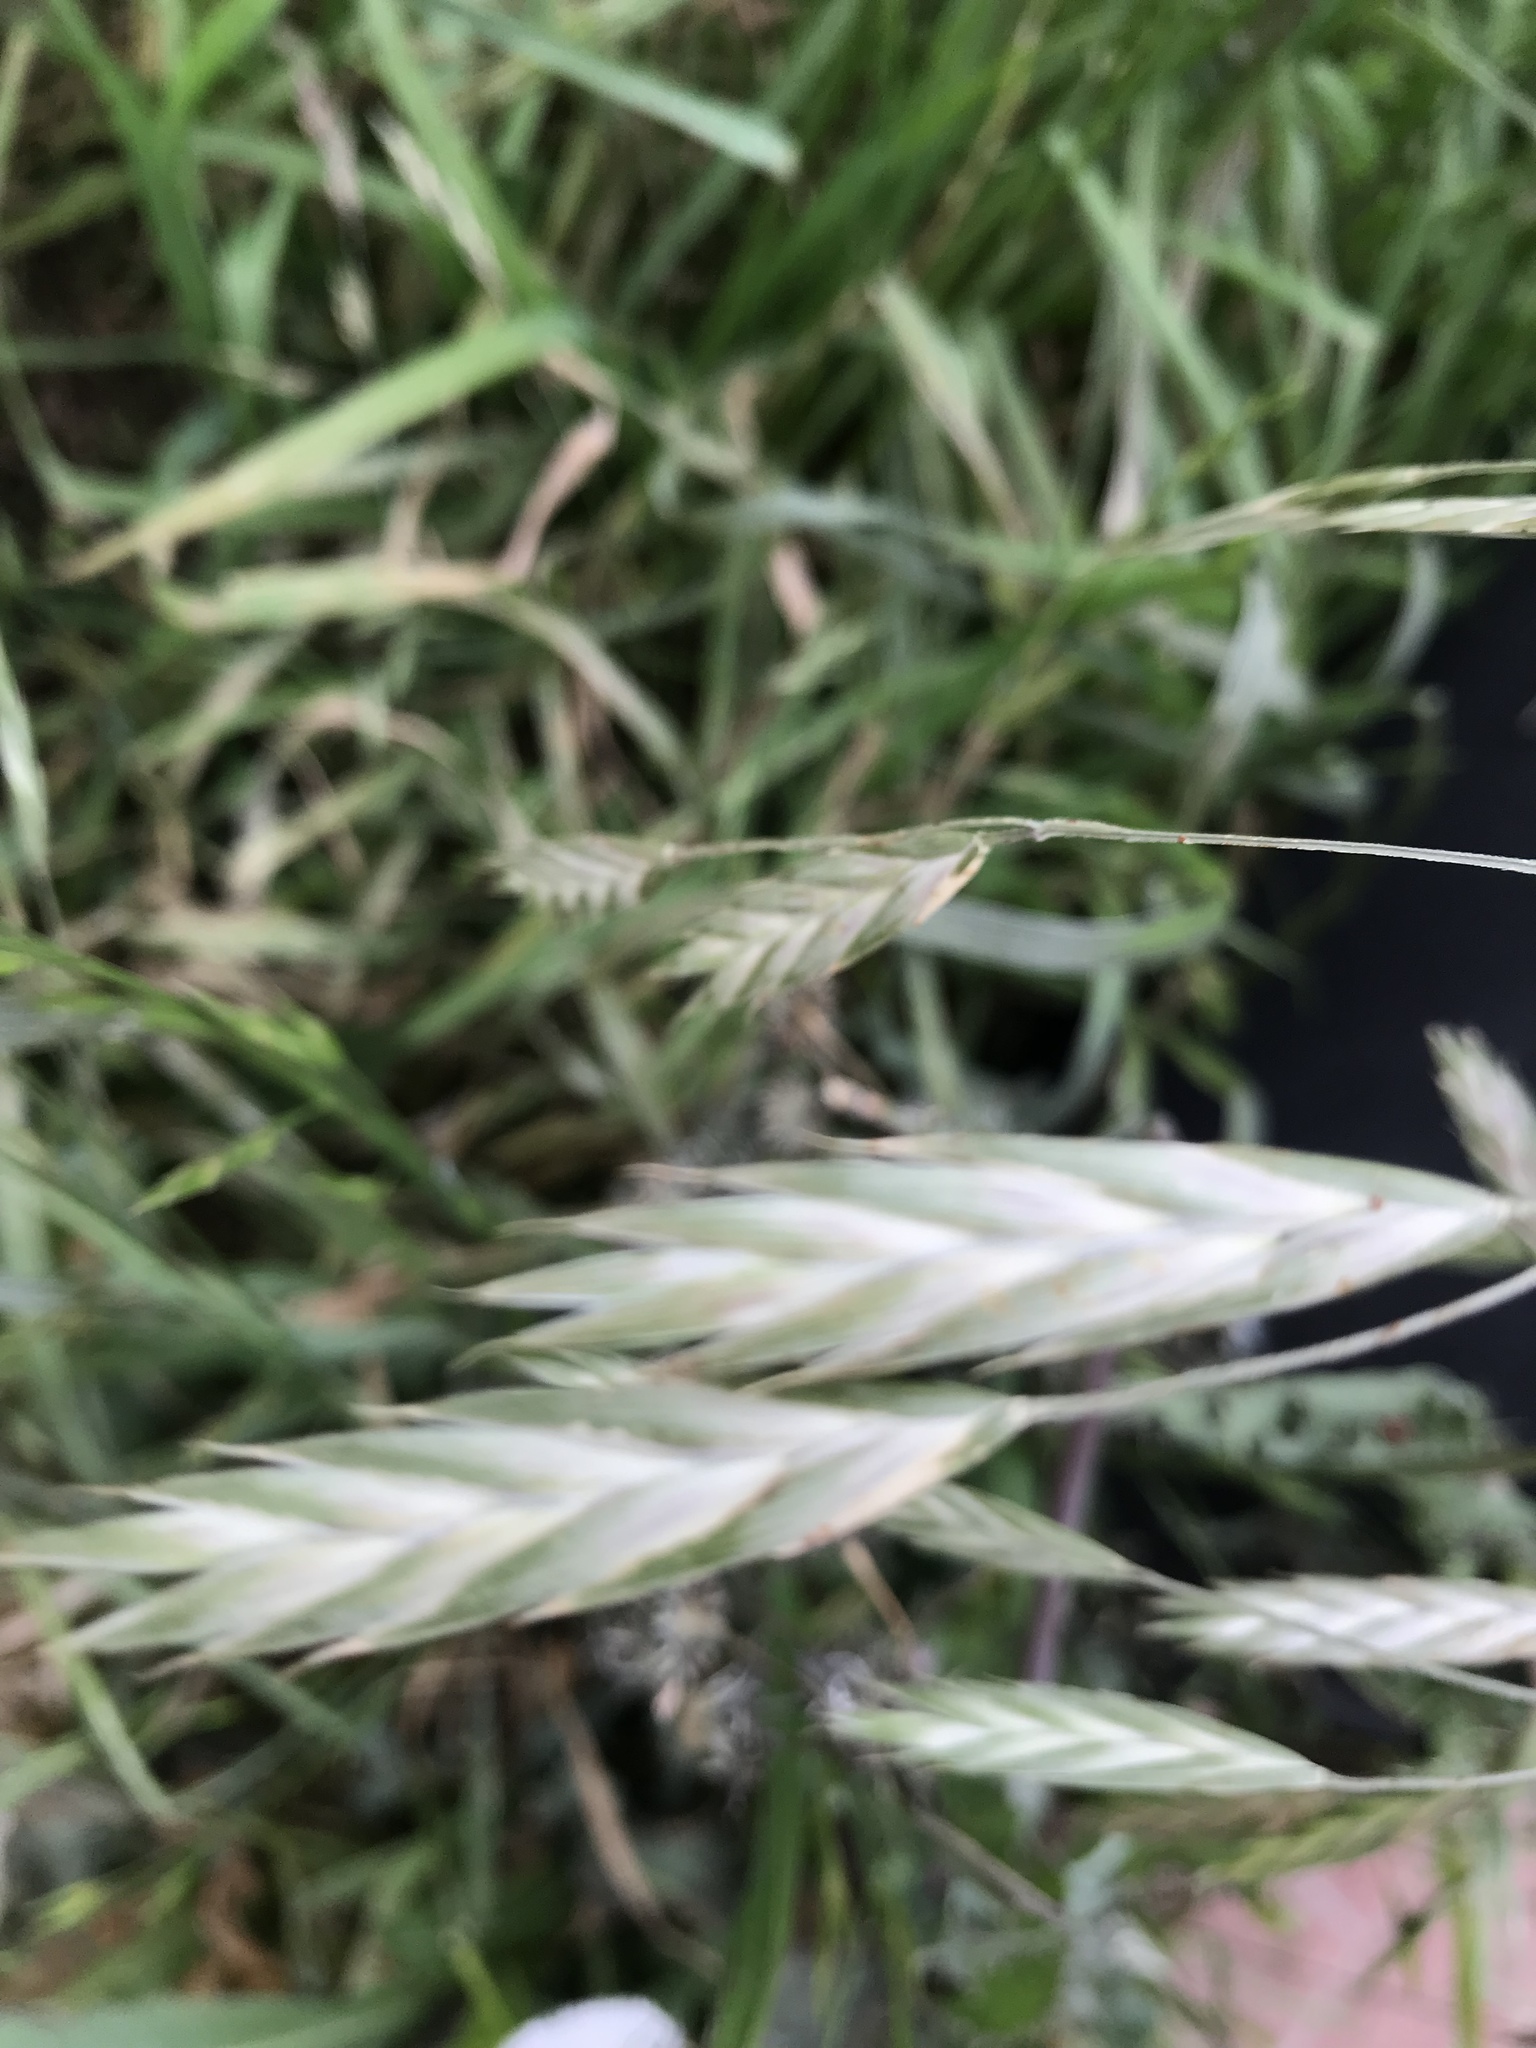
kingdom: Plantae
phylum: Tracheophyta
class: Liliopsida
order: Poales
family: Poaceae
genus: Bromus
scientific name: Bromus catharticus
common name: Rescuegrass
